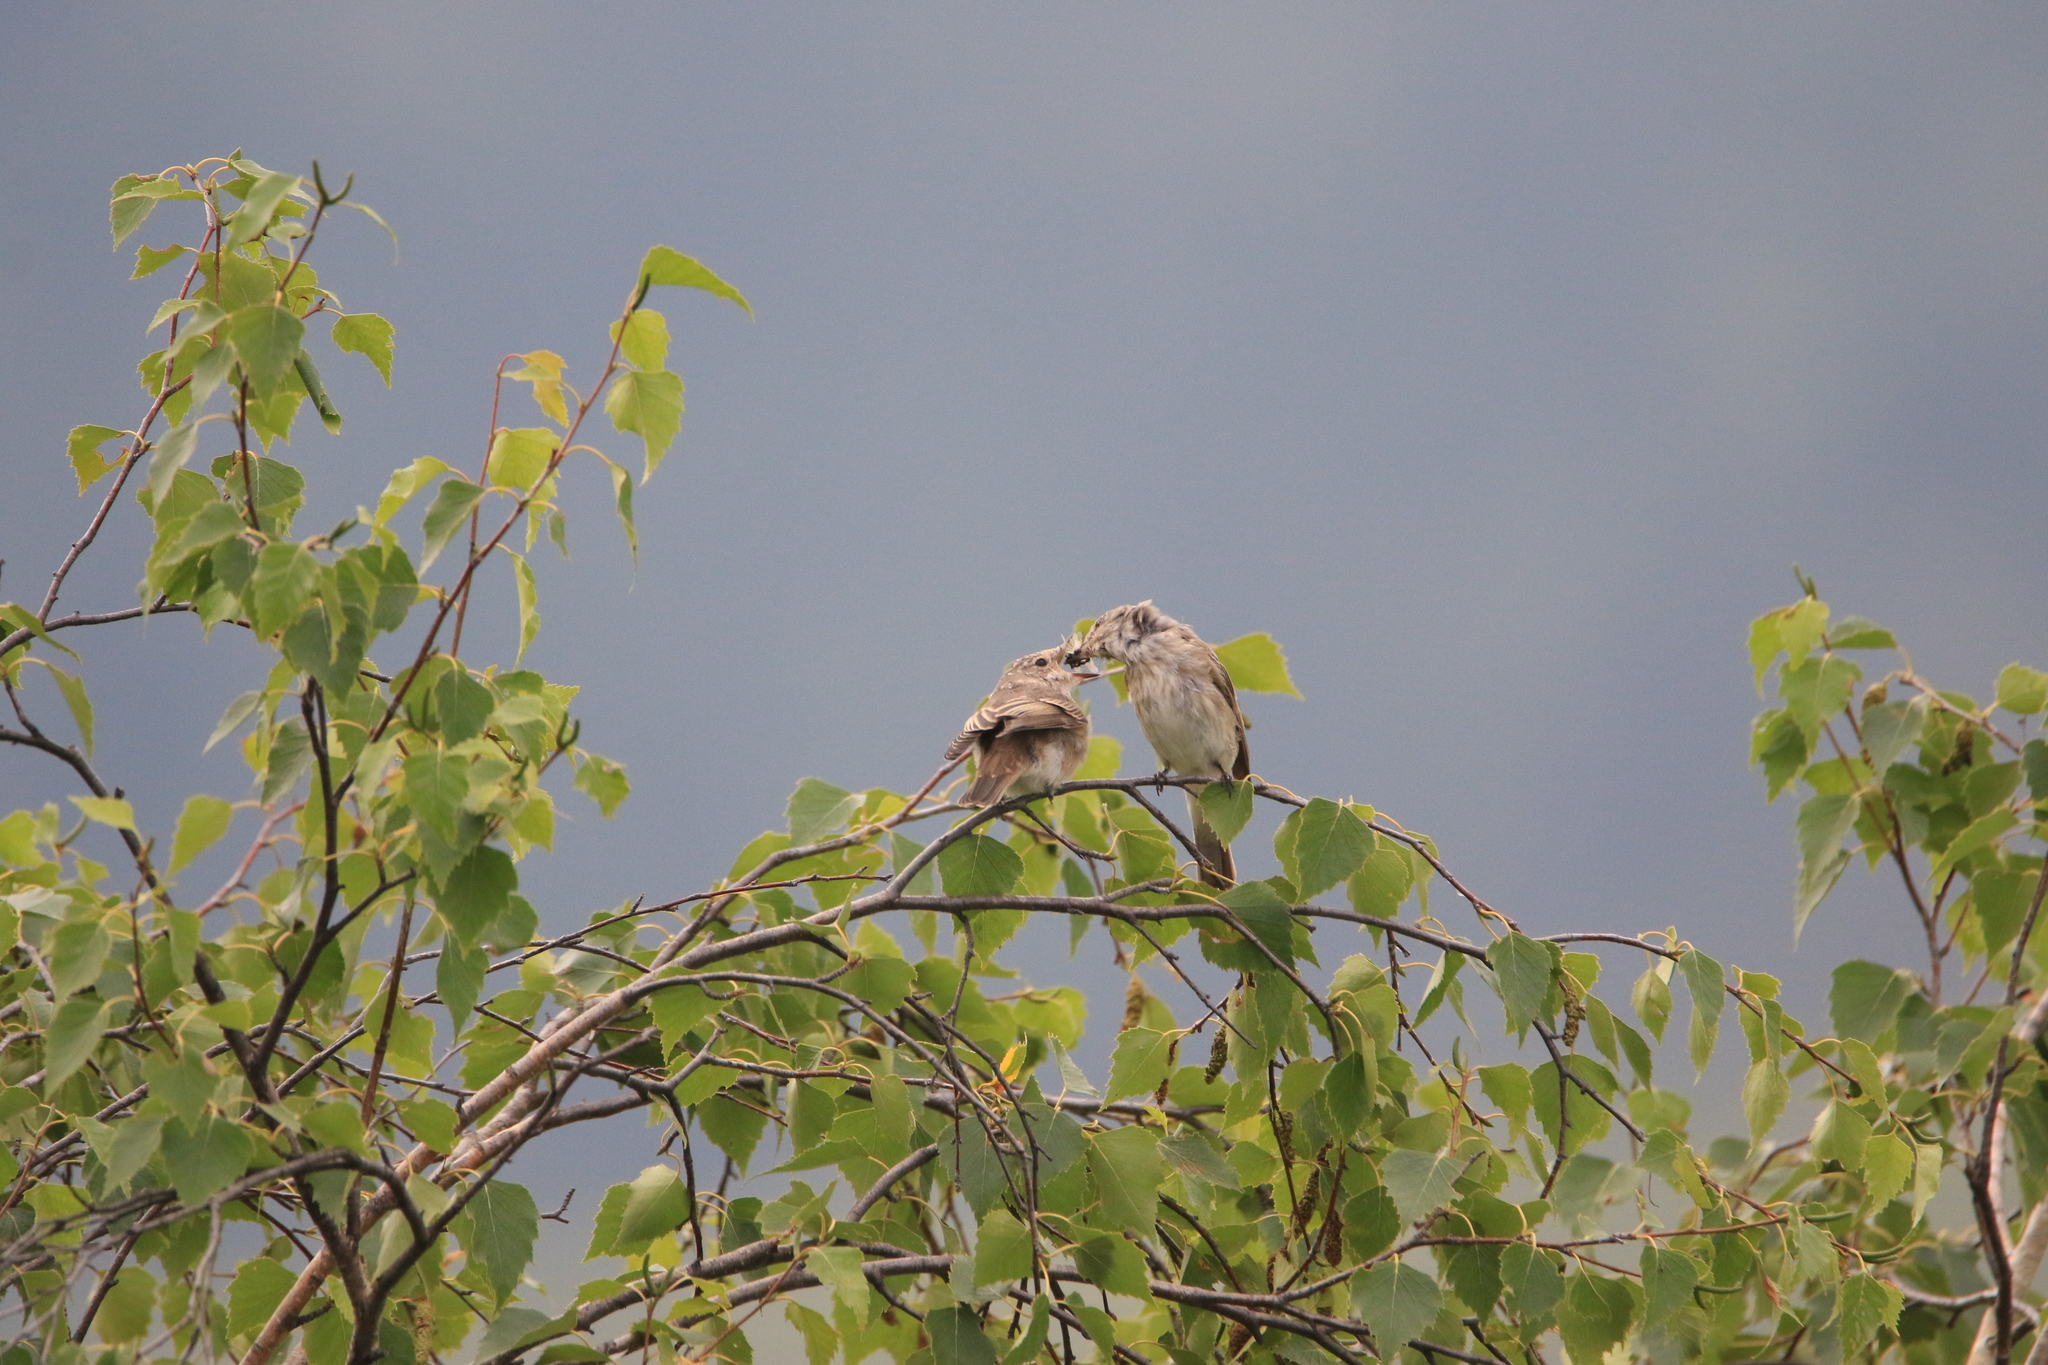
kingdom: Animalia
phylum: Chordata
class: Aves
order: Passeriformes
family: Muscicapidae
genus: Muscicapa
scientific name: Muscicapa striata
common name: Spotted flycatcher
